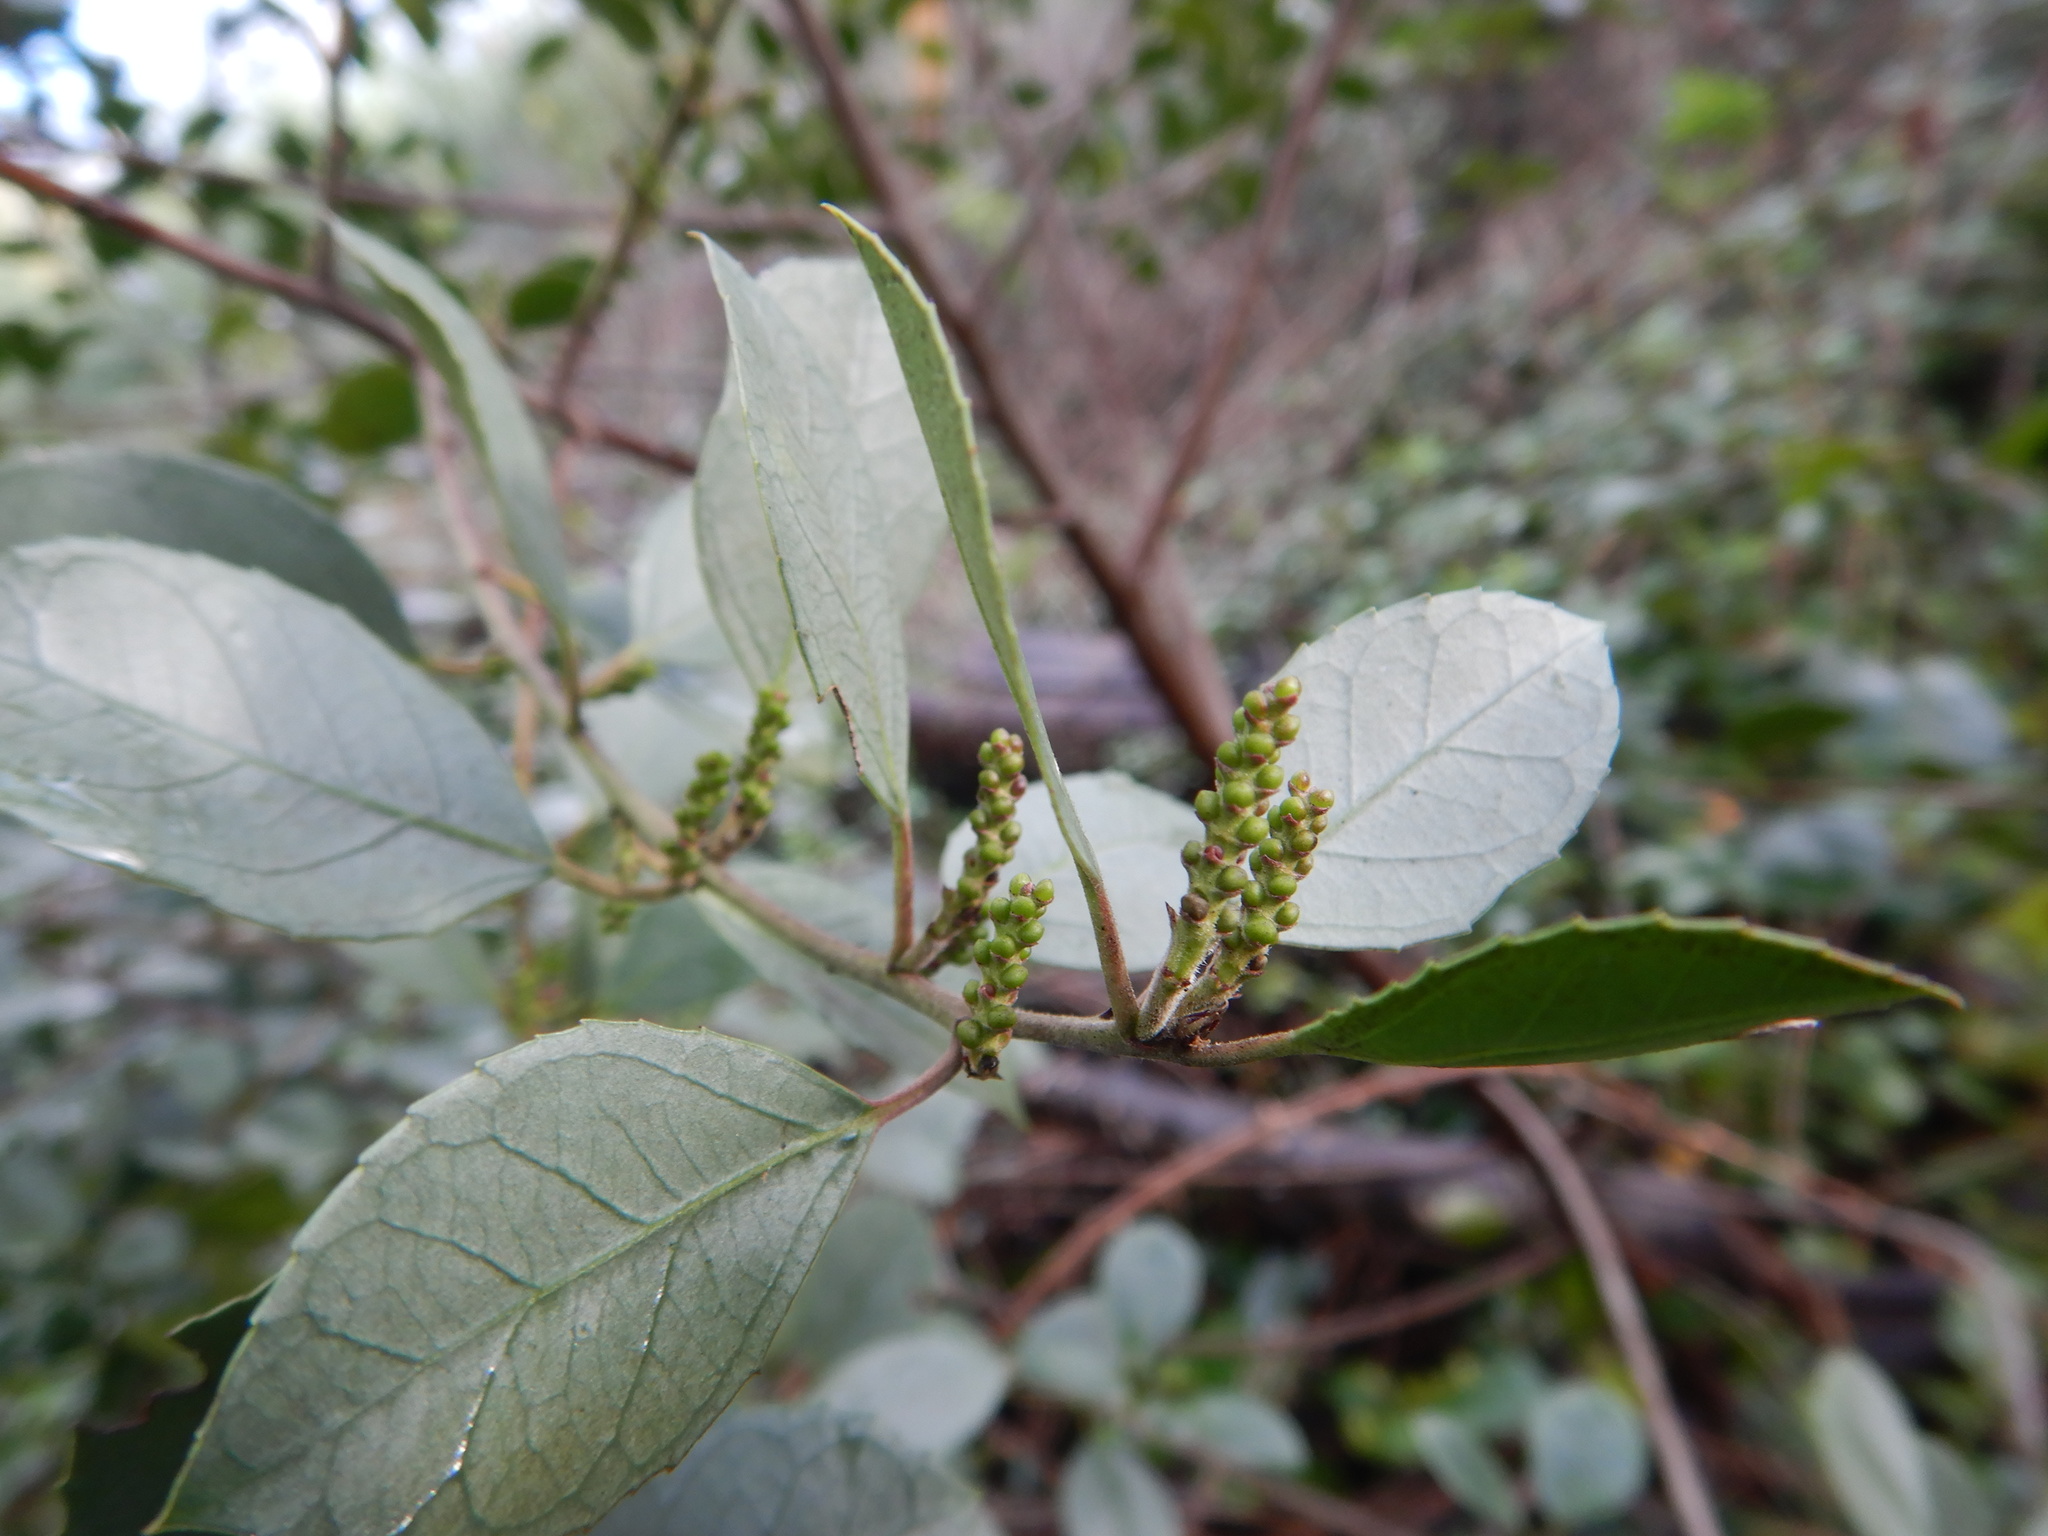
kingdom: Plantae
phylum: Tracheophyta
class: Magnoliopsida
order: Rosales
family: Rhamnaceae
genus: Rhamnus
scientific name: Rhamnus alaternus
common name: Mediterranean buckthorn
